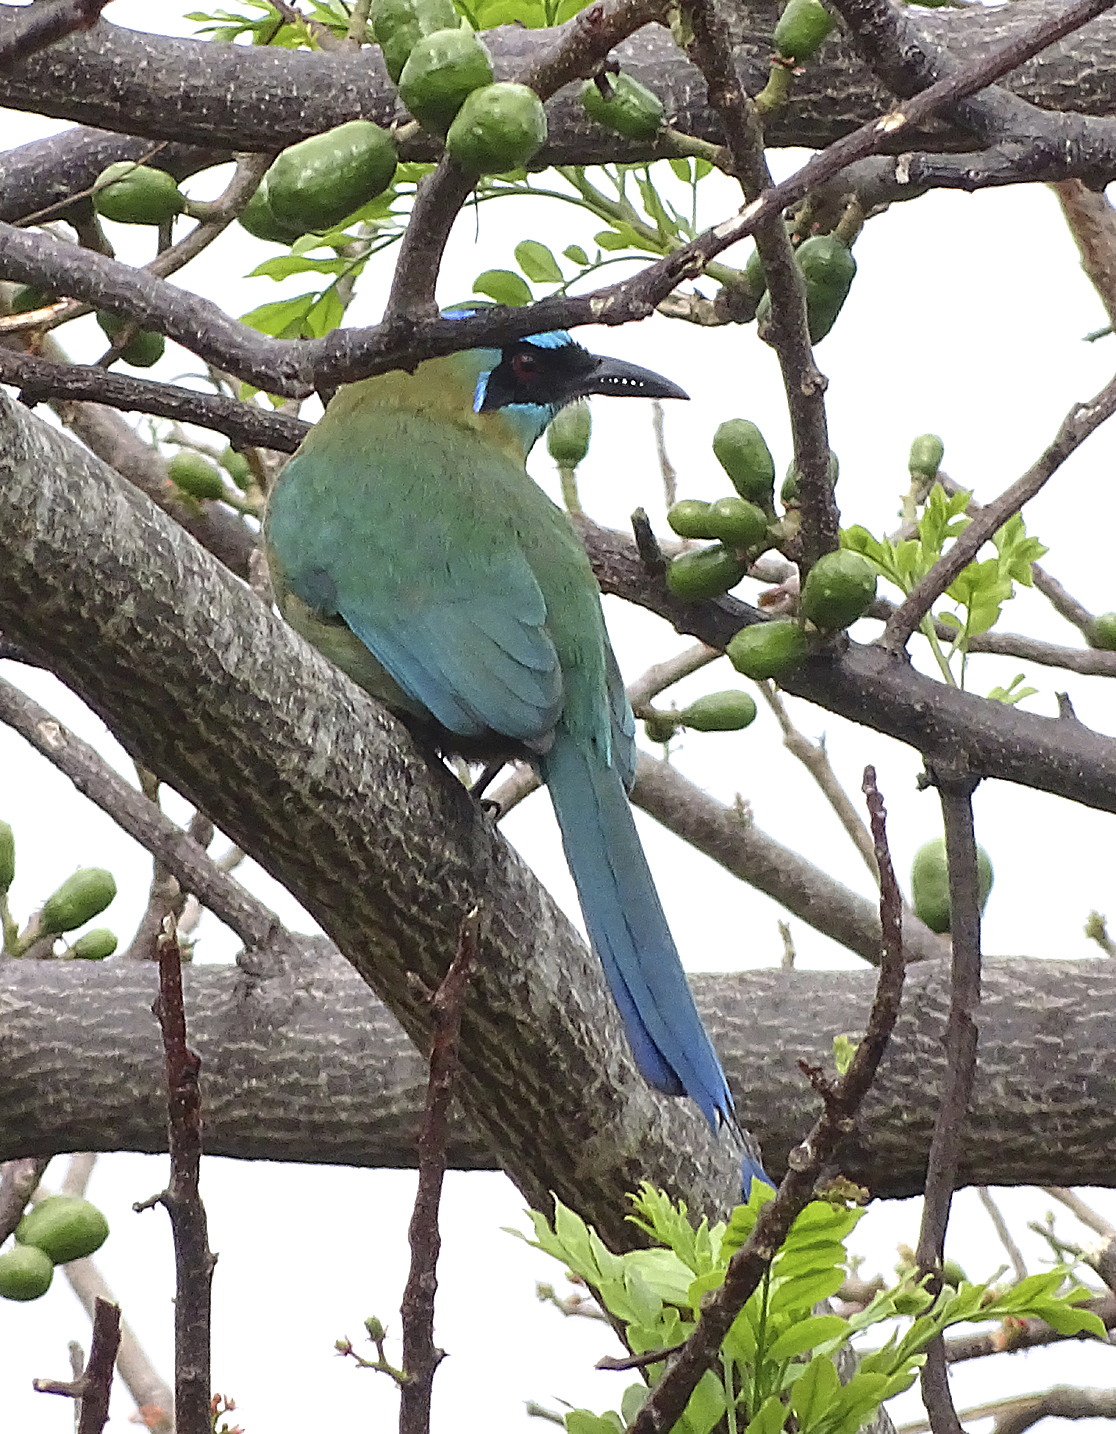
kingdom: Animalia
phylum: Chordata
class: Aves
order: Coraciiformes
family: Momotidae
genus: Momotus
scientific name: Momotus lessonii
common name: Lesson's motmot
